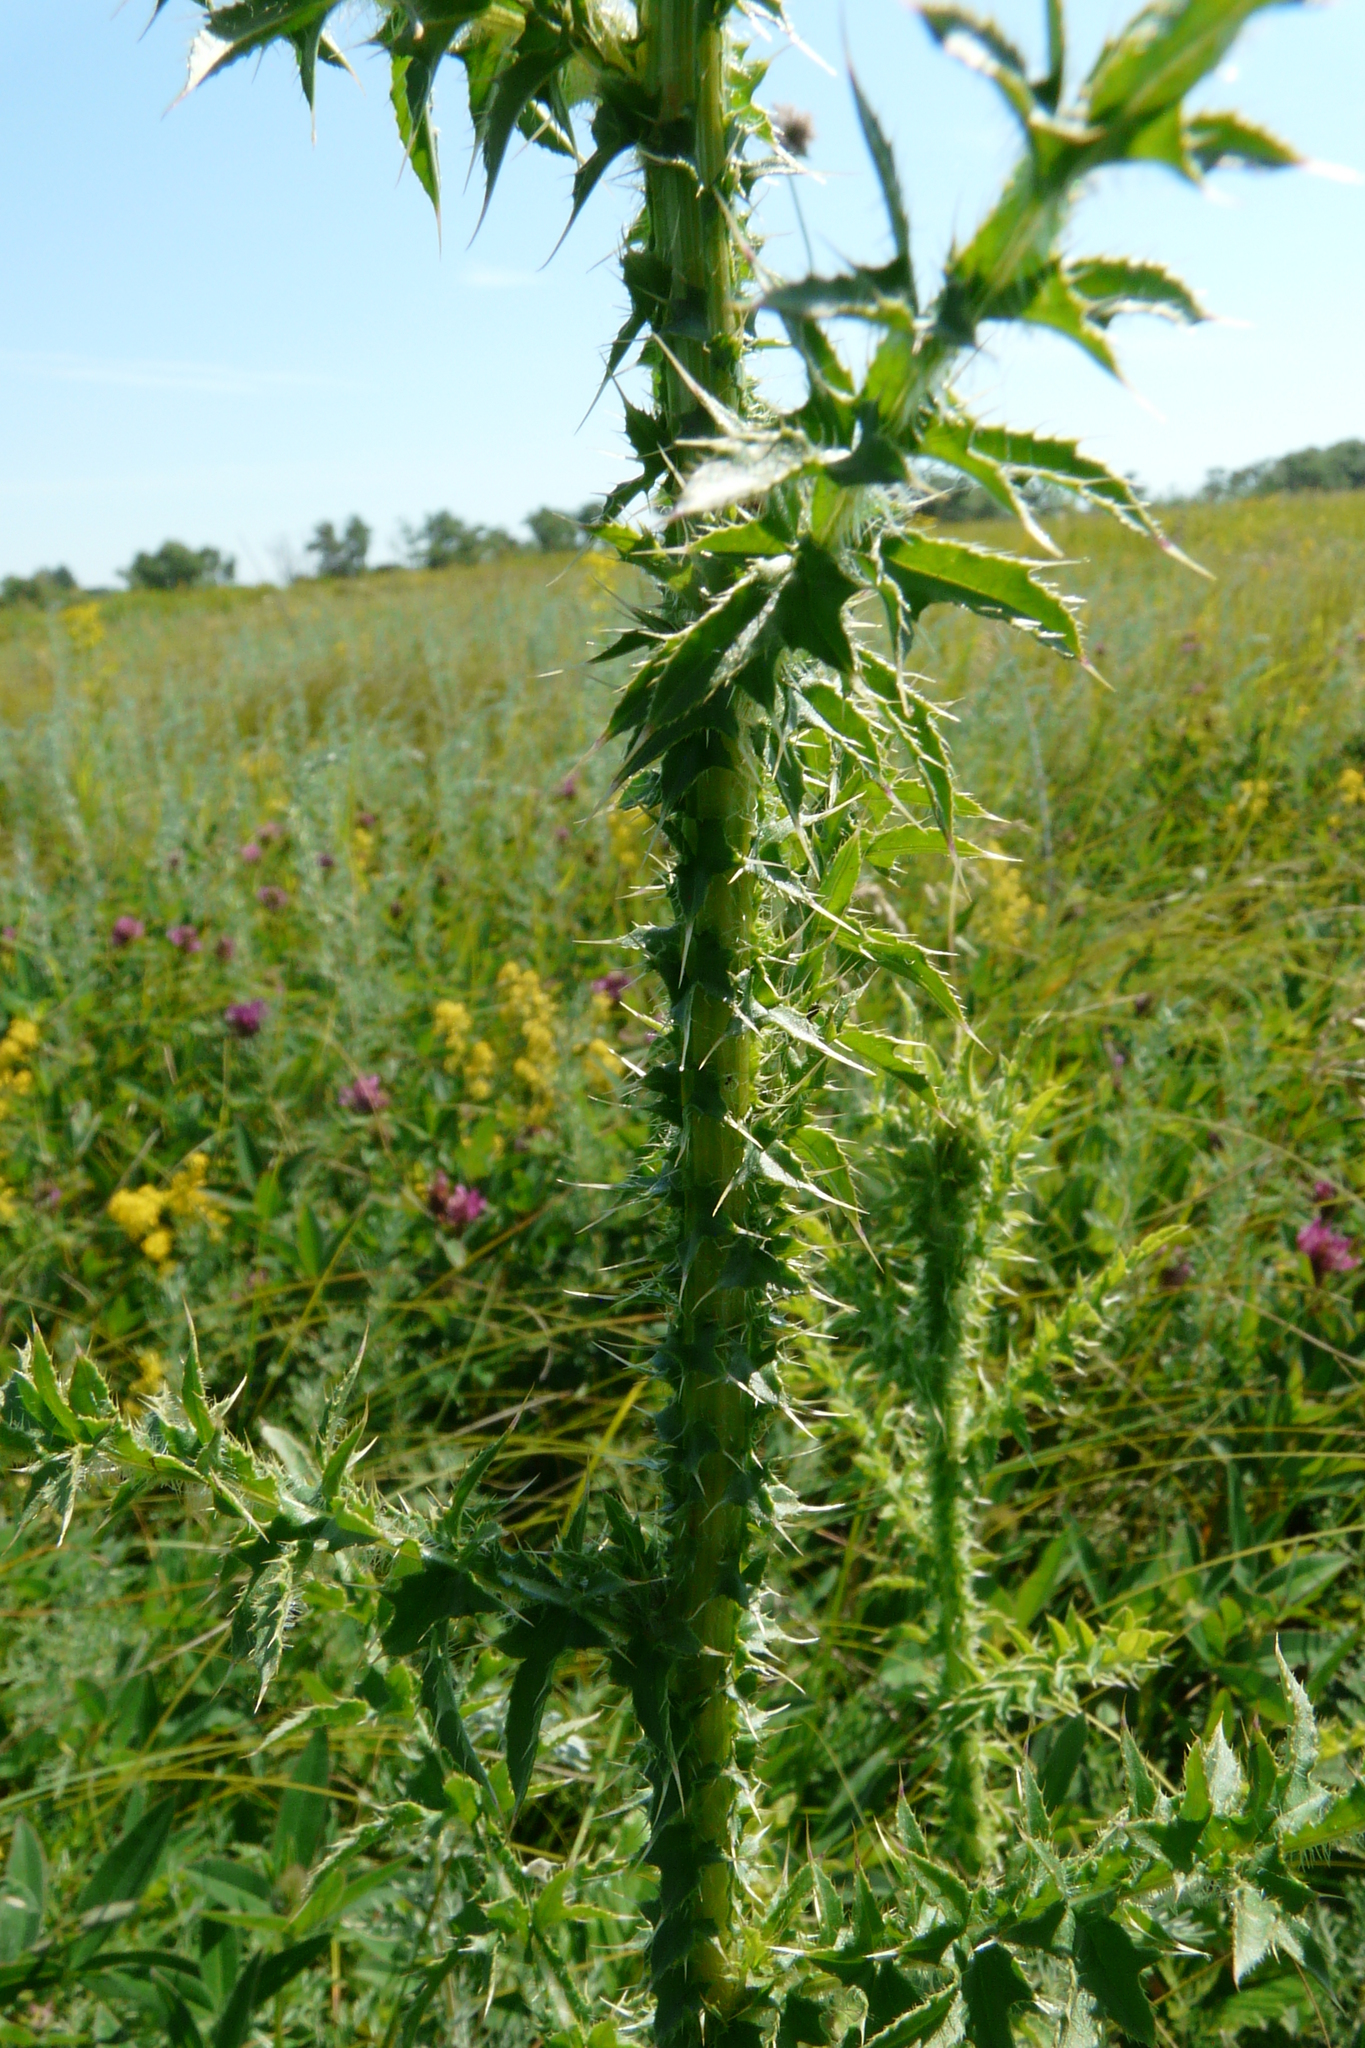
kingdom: Plantae
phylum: Tracheophyta
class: Magnoliopsida
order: Asterales
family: Asteraceae
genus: Carduus
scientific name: Carduus crispus
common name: Welted thistle
